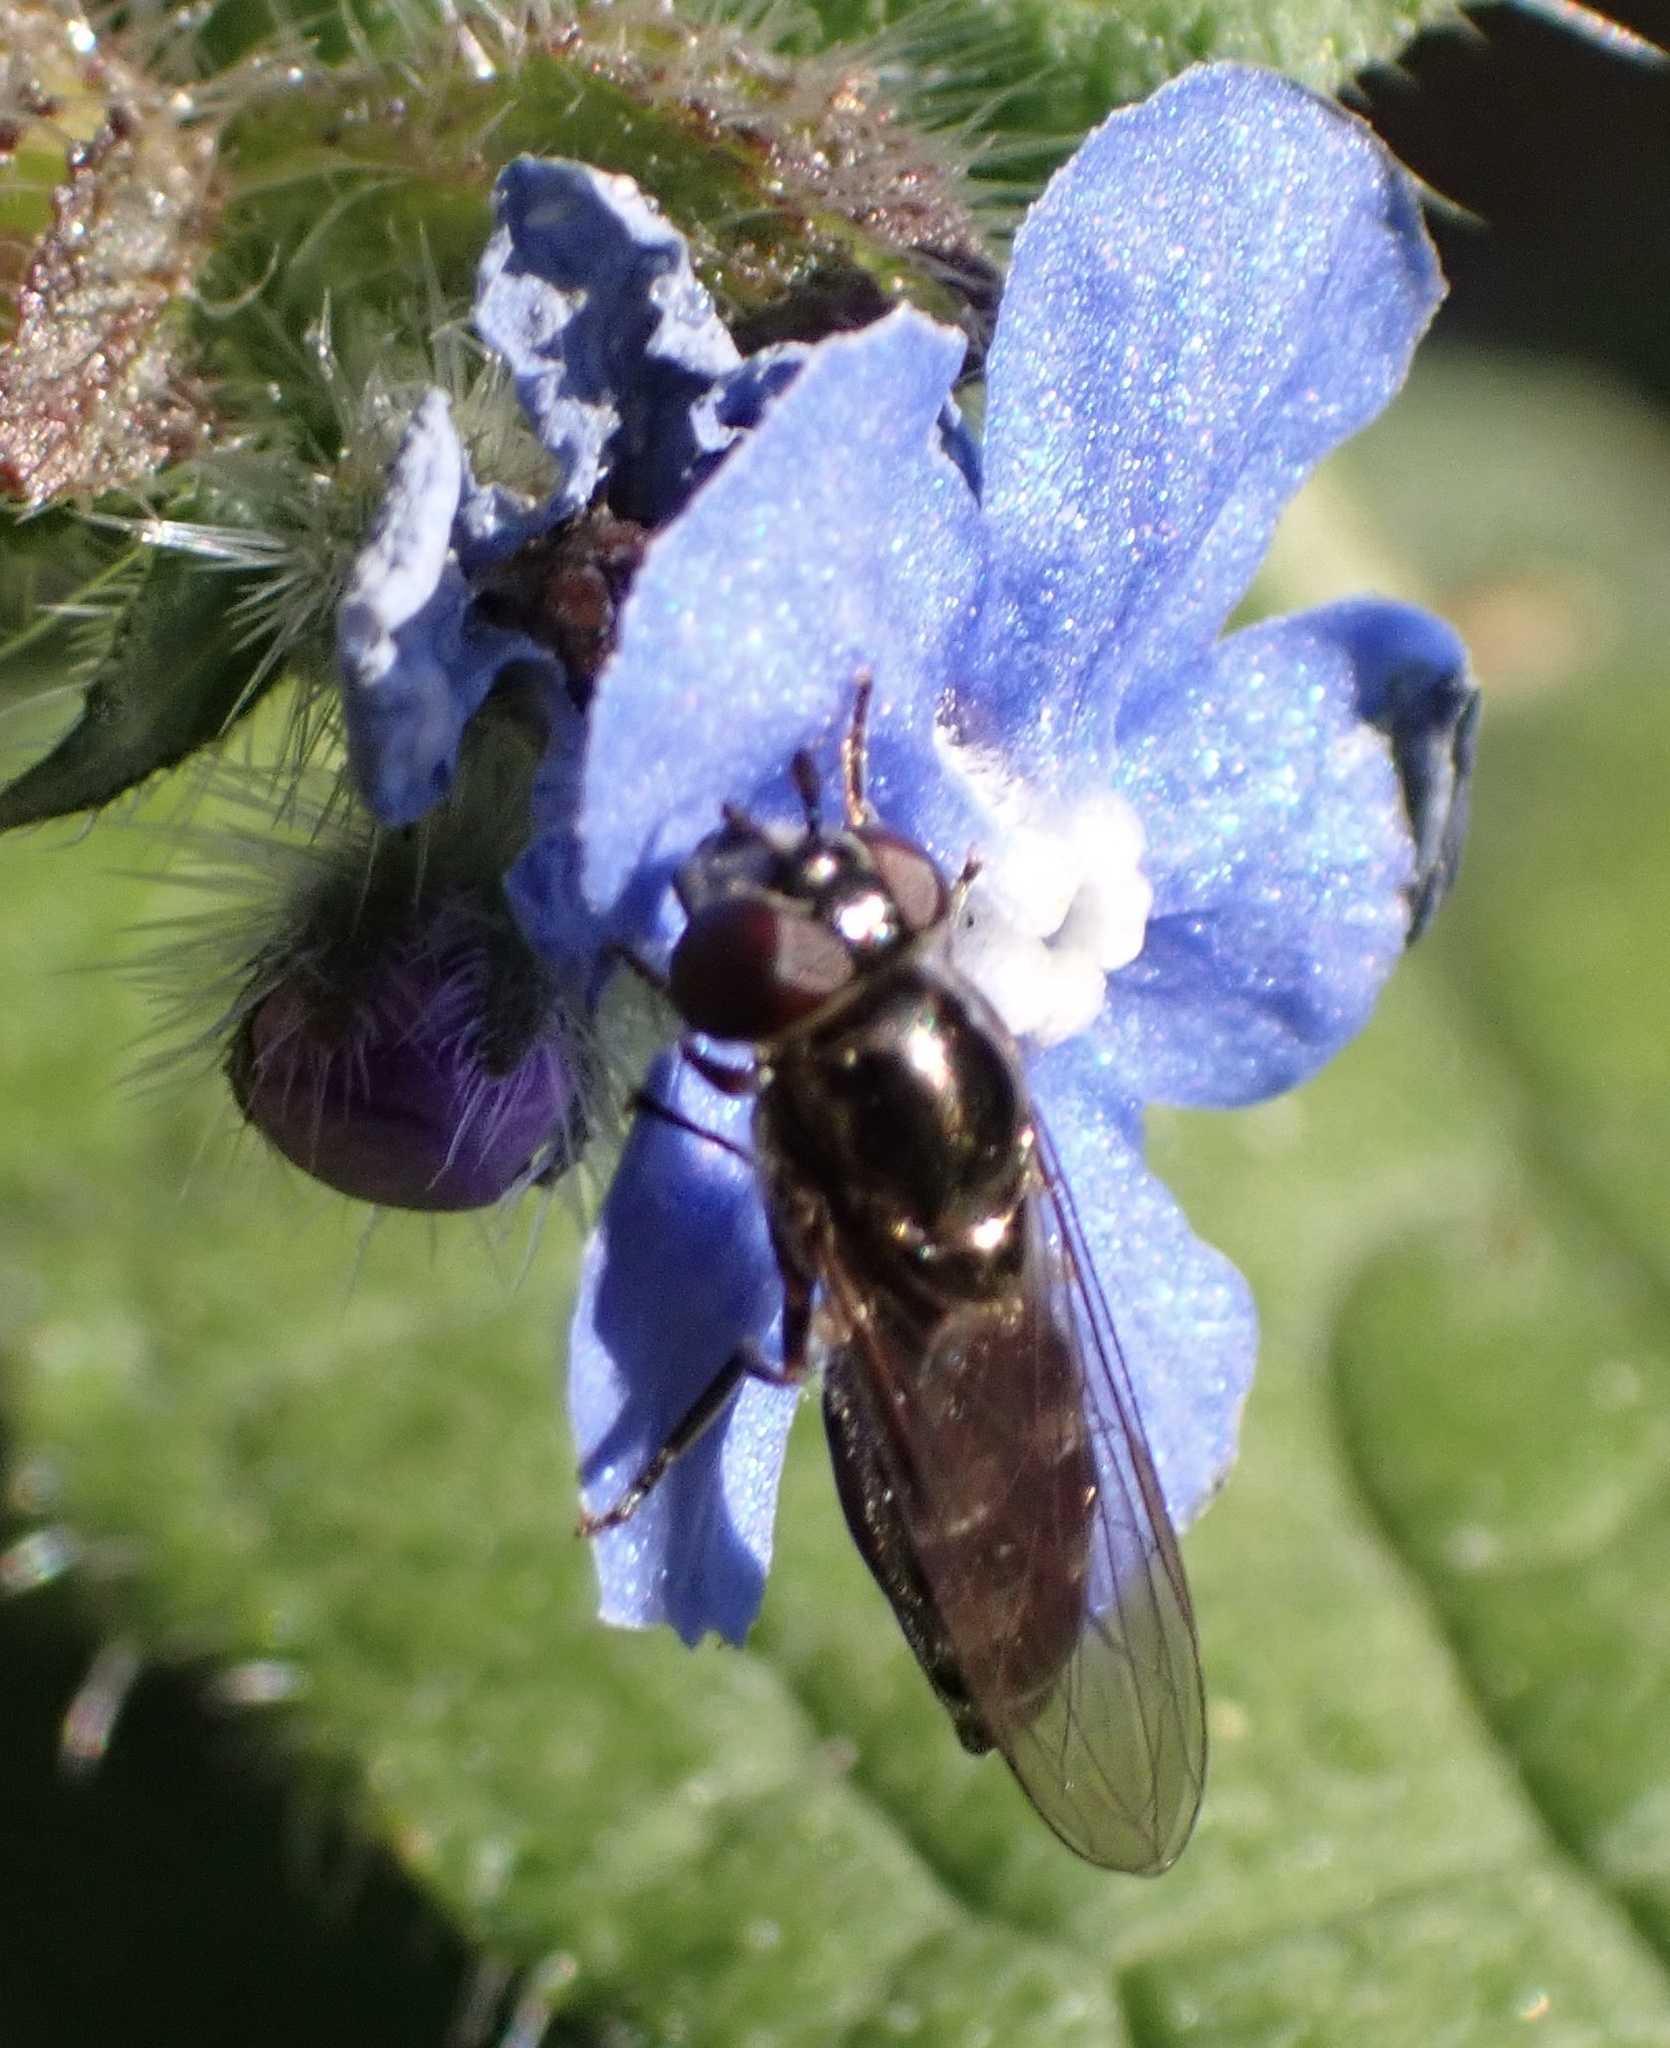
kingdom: Animalia
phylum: Arthropoda
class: Insecta
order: Diptera
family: Syrphidae
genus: Platycheirus
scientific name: Platycheirus albimanus
